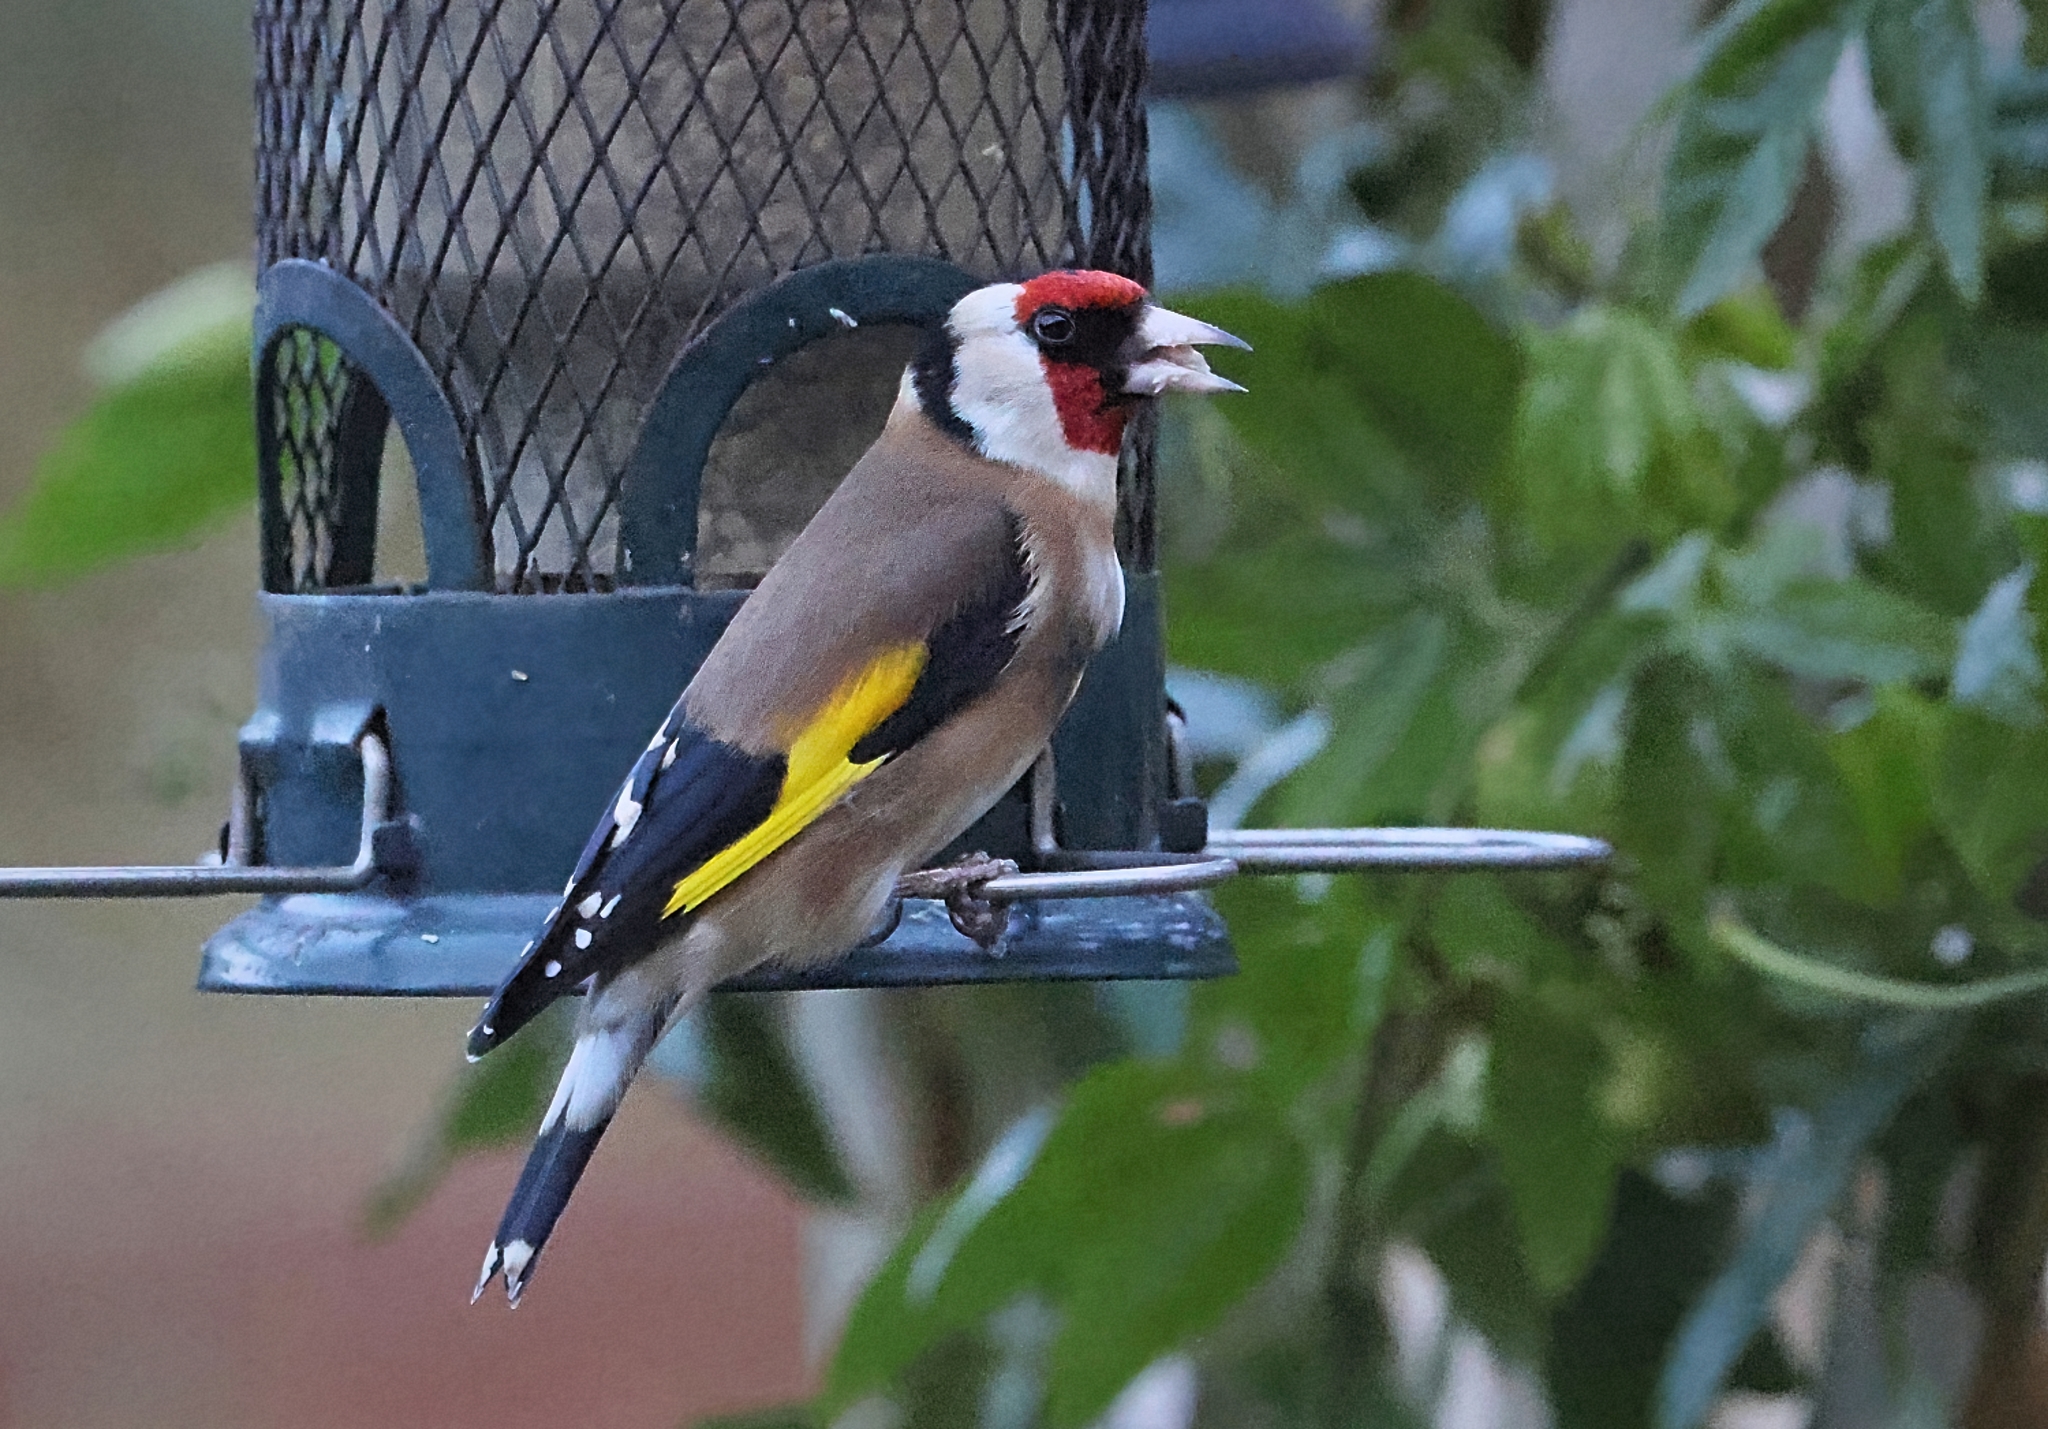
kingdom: Animalia
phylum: Chordata
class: Aves
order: Passeriformes
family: Fringillidae
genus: Carduelis
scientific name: Carduelis carduelis
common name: European goldfinch
